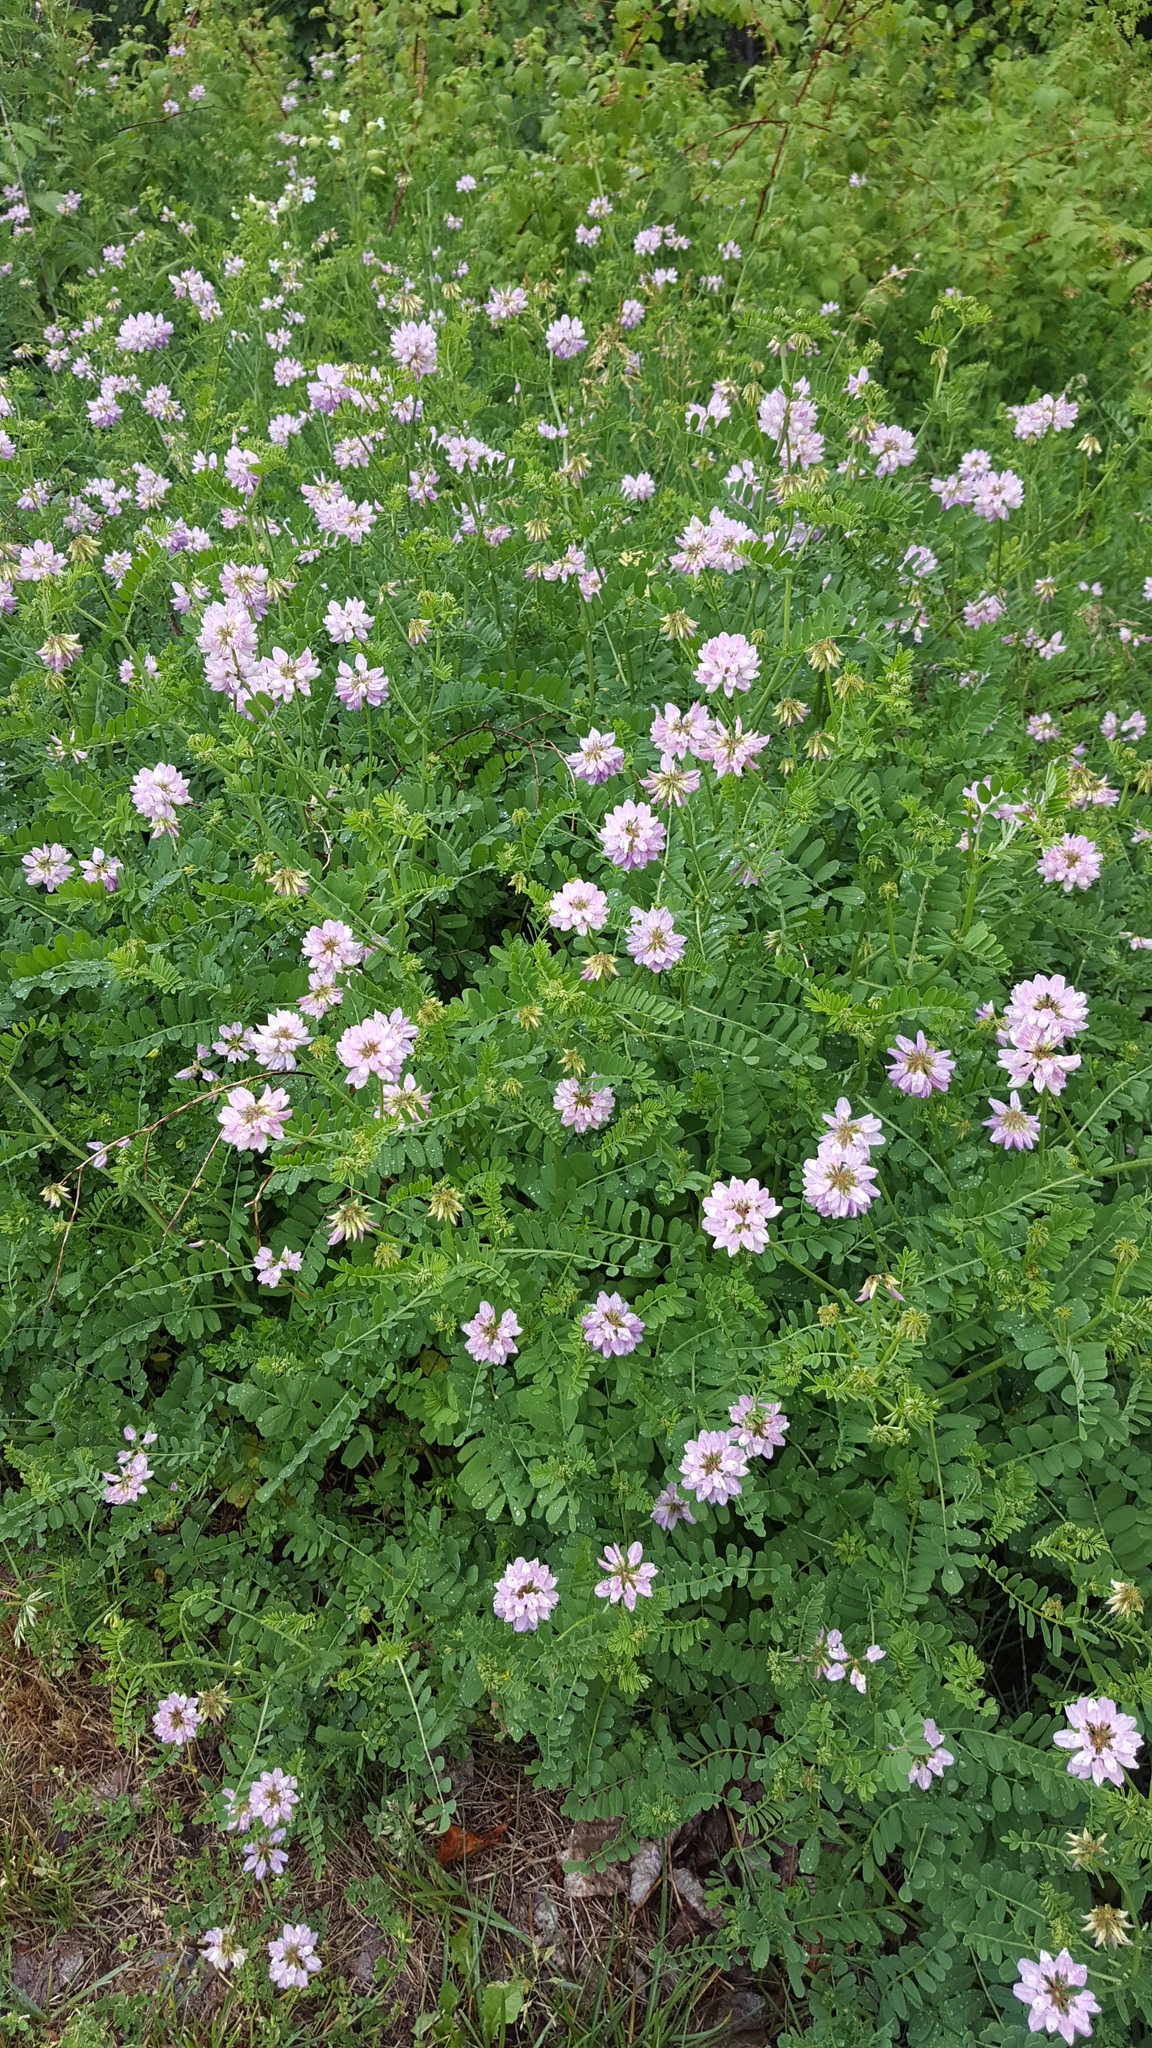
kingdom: Plantae
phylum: Tracheophyta
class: Magnoliopsida
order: Fabales
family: Fabaceae
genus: Coronilla
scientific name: Coronilla varia
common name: Crownvetch
